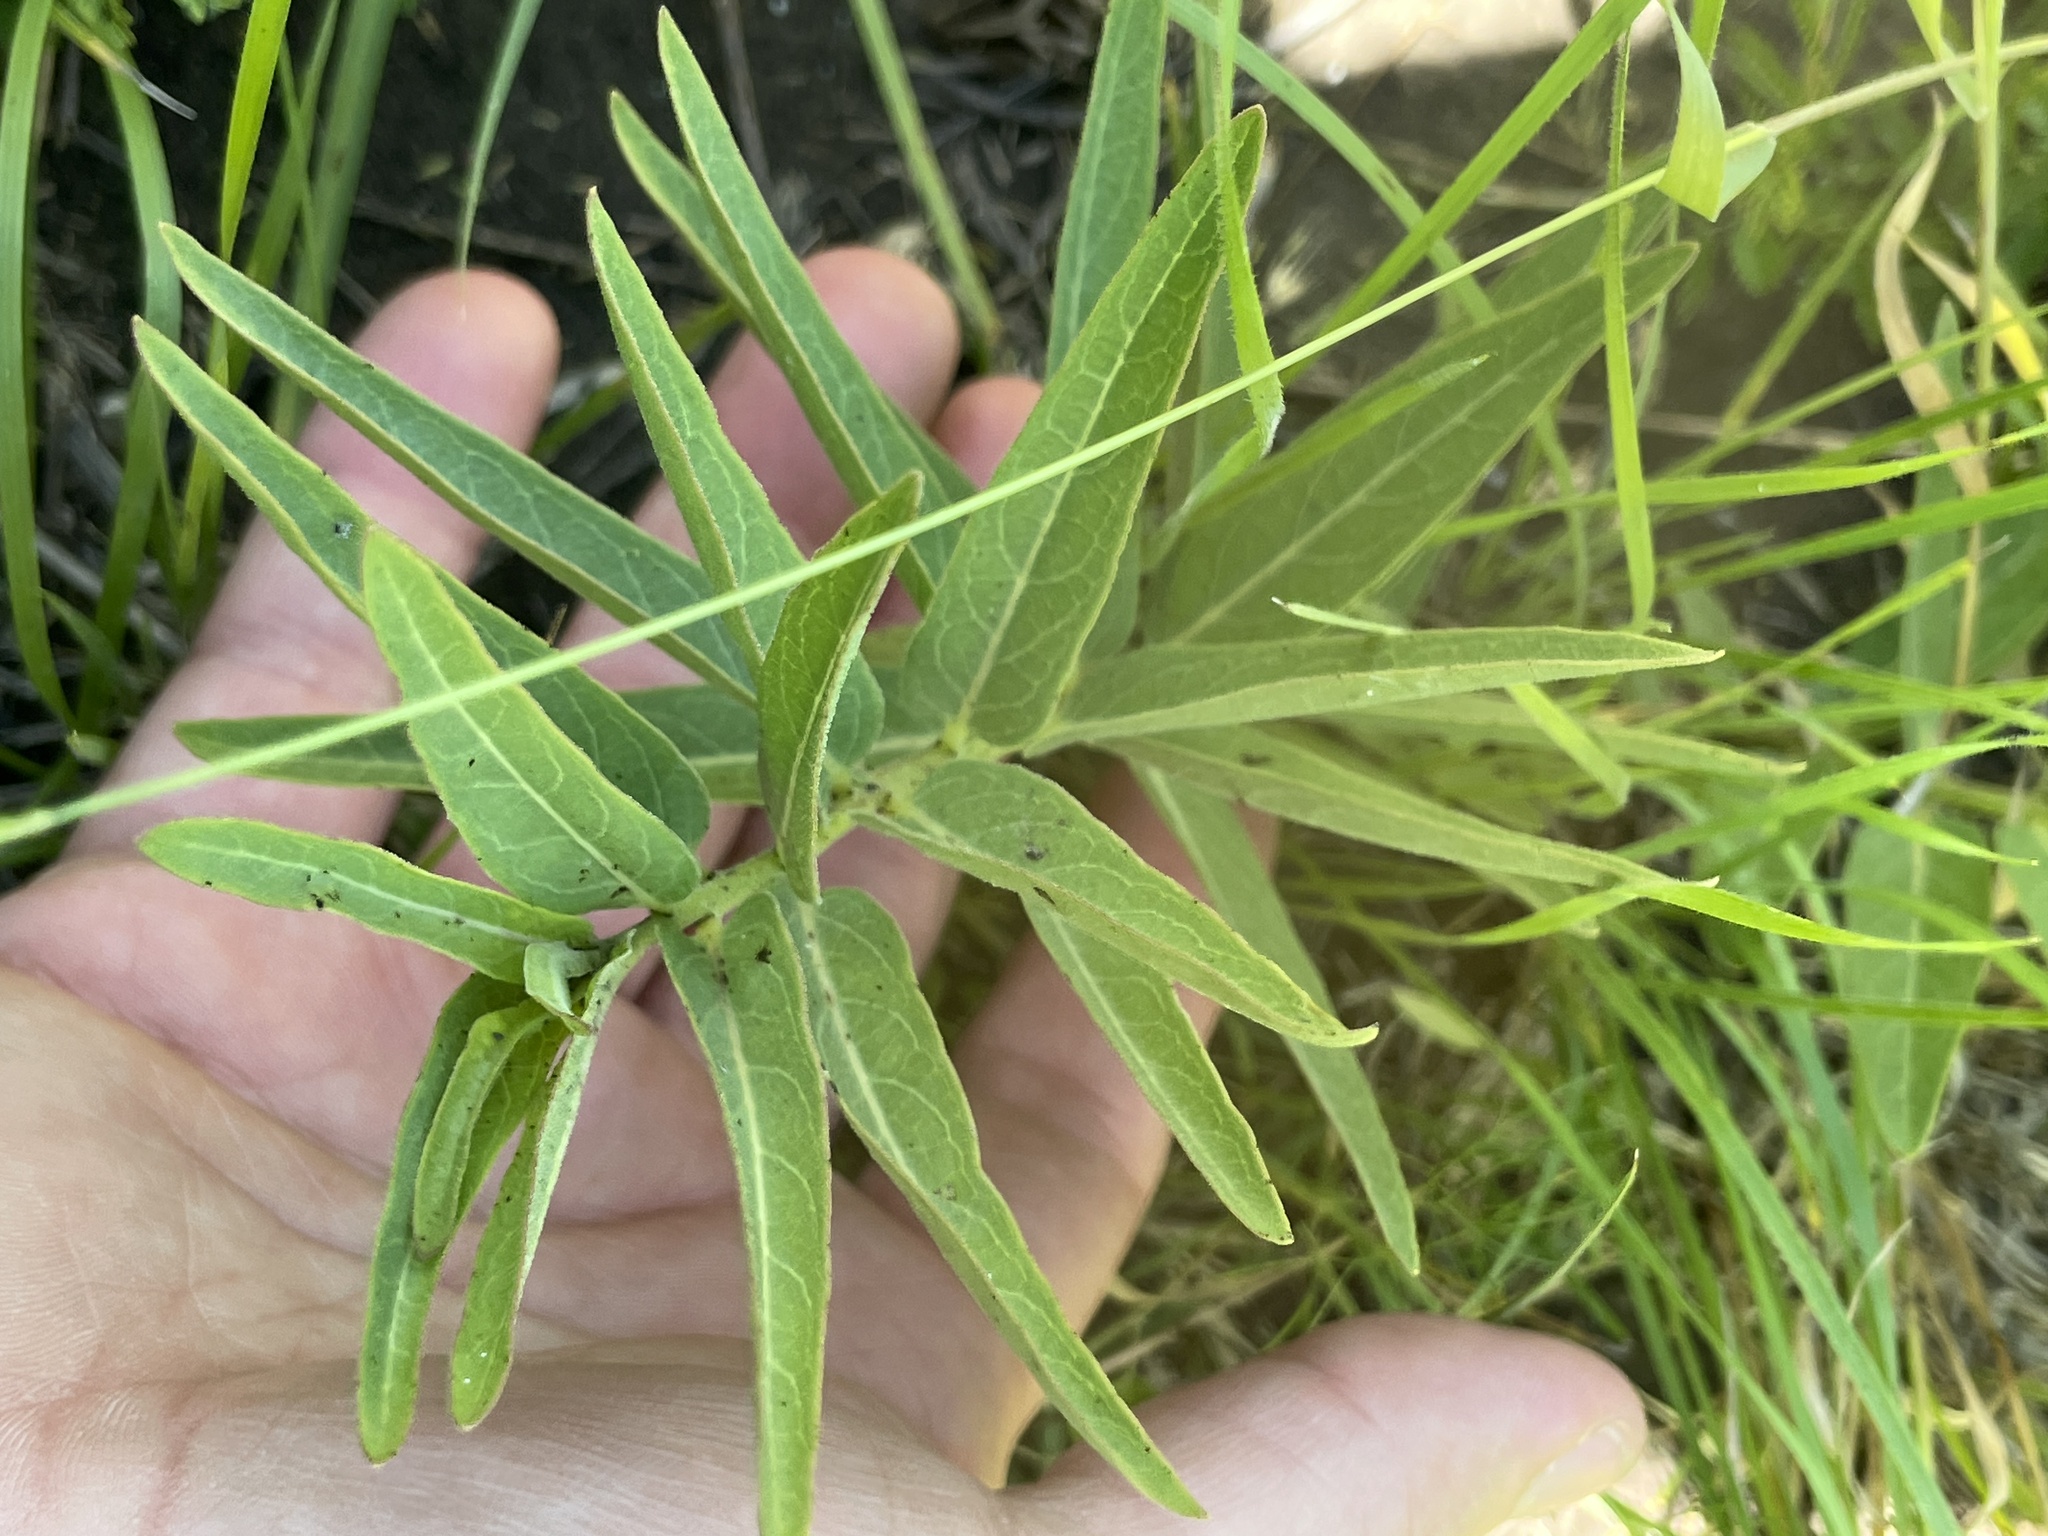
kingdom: Plantae
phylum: Tracheophyta
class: Magnoliopsida
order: Gentianales
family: Apocynaceae
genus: Asclepias
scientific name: Asclepias asperula
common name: Antelope horns
